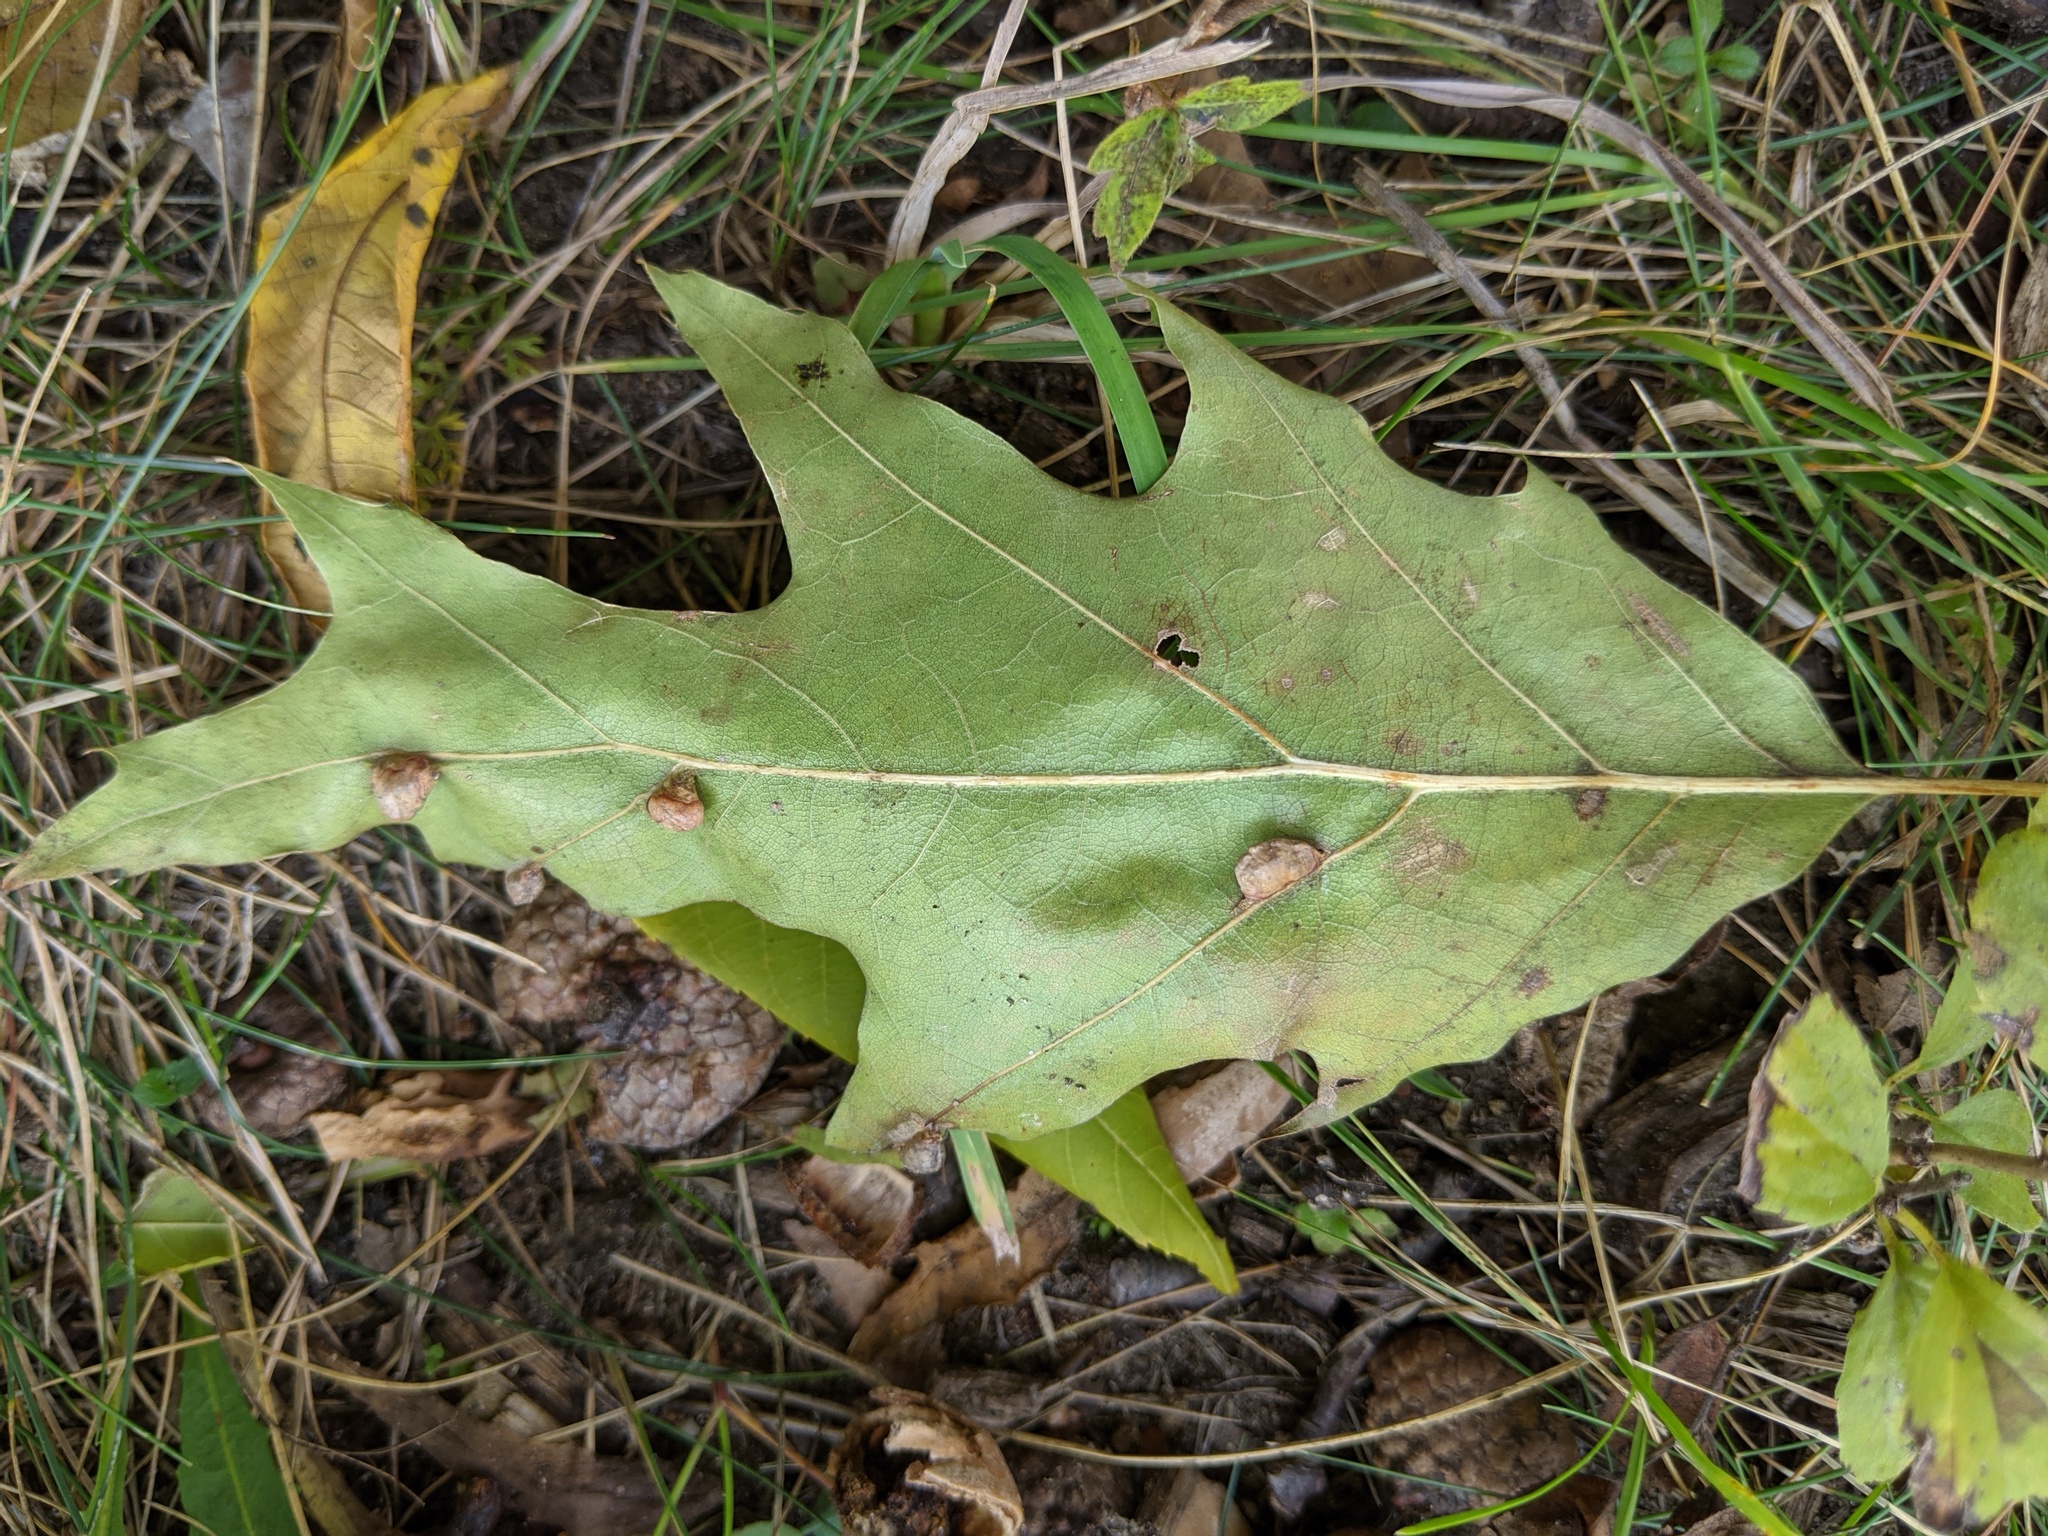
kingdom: Animalia
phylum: Arthropoda
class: Insecta
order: Diptera
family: Cecidomyiidae
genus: Macrodiplosis
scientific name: Macrodiplosis majalis
